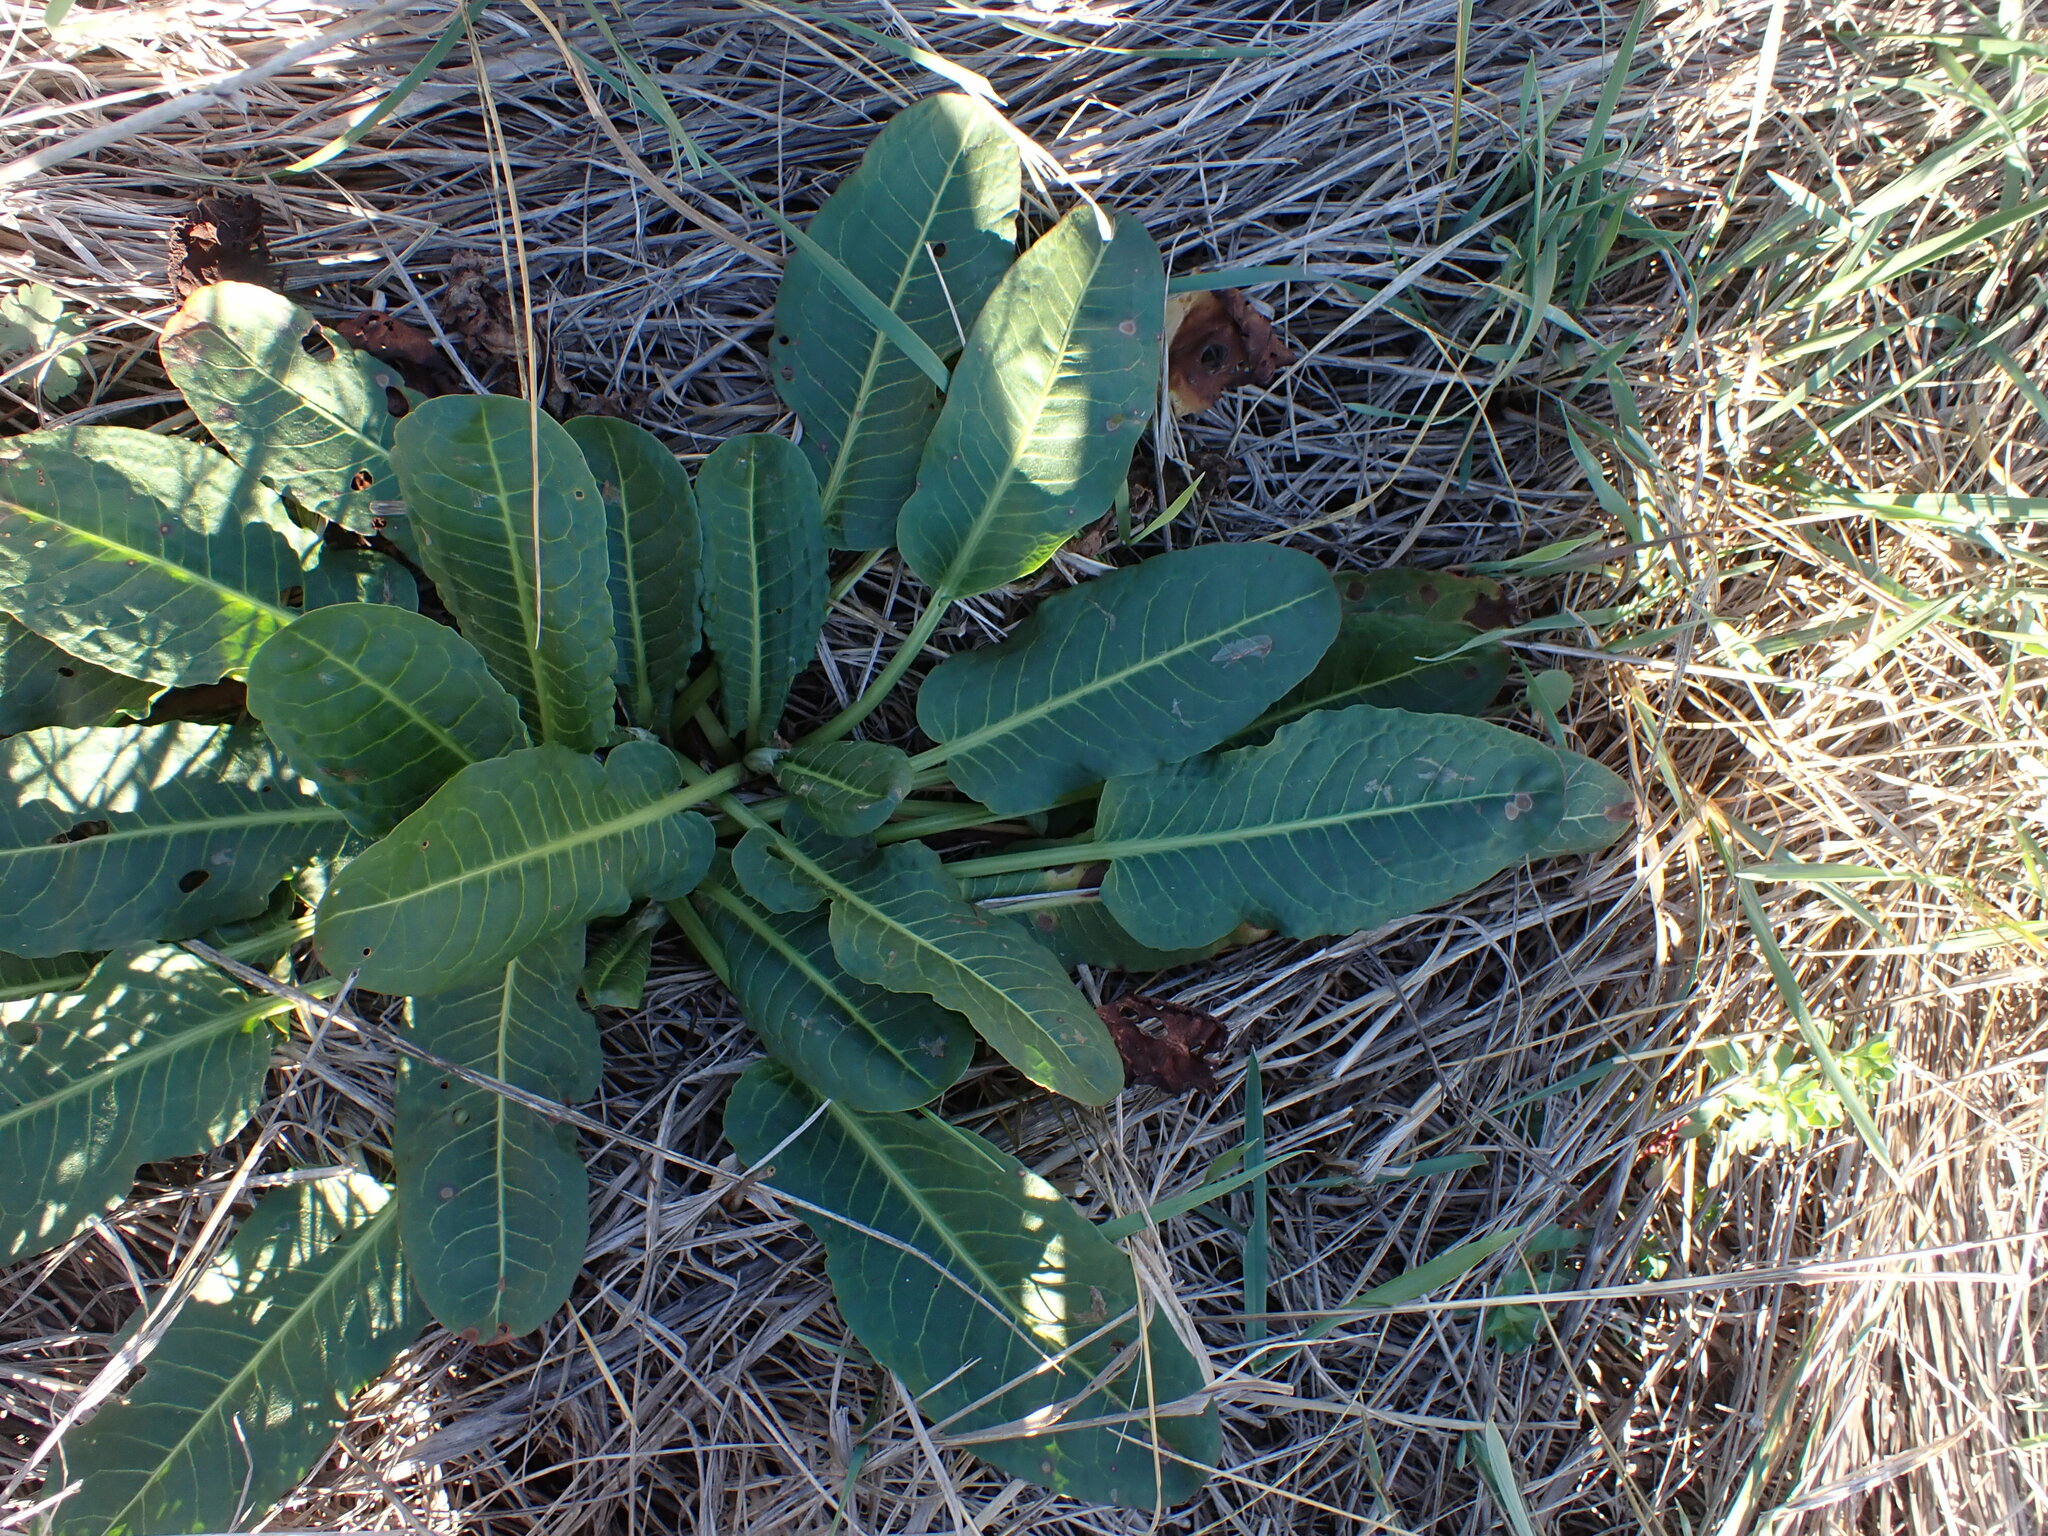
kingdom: Plantae
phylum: Tracheophyta
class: Magnoliopsida
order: Caryophyllales
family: Polygonaceae
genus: Rumex
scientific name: Rumex pulcher
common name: Fiddle dock
